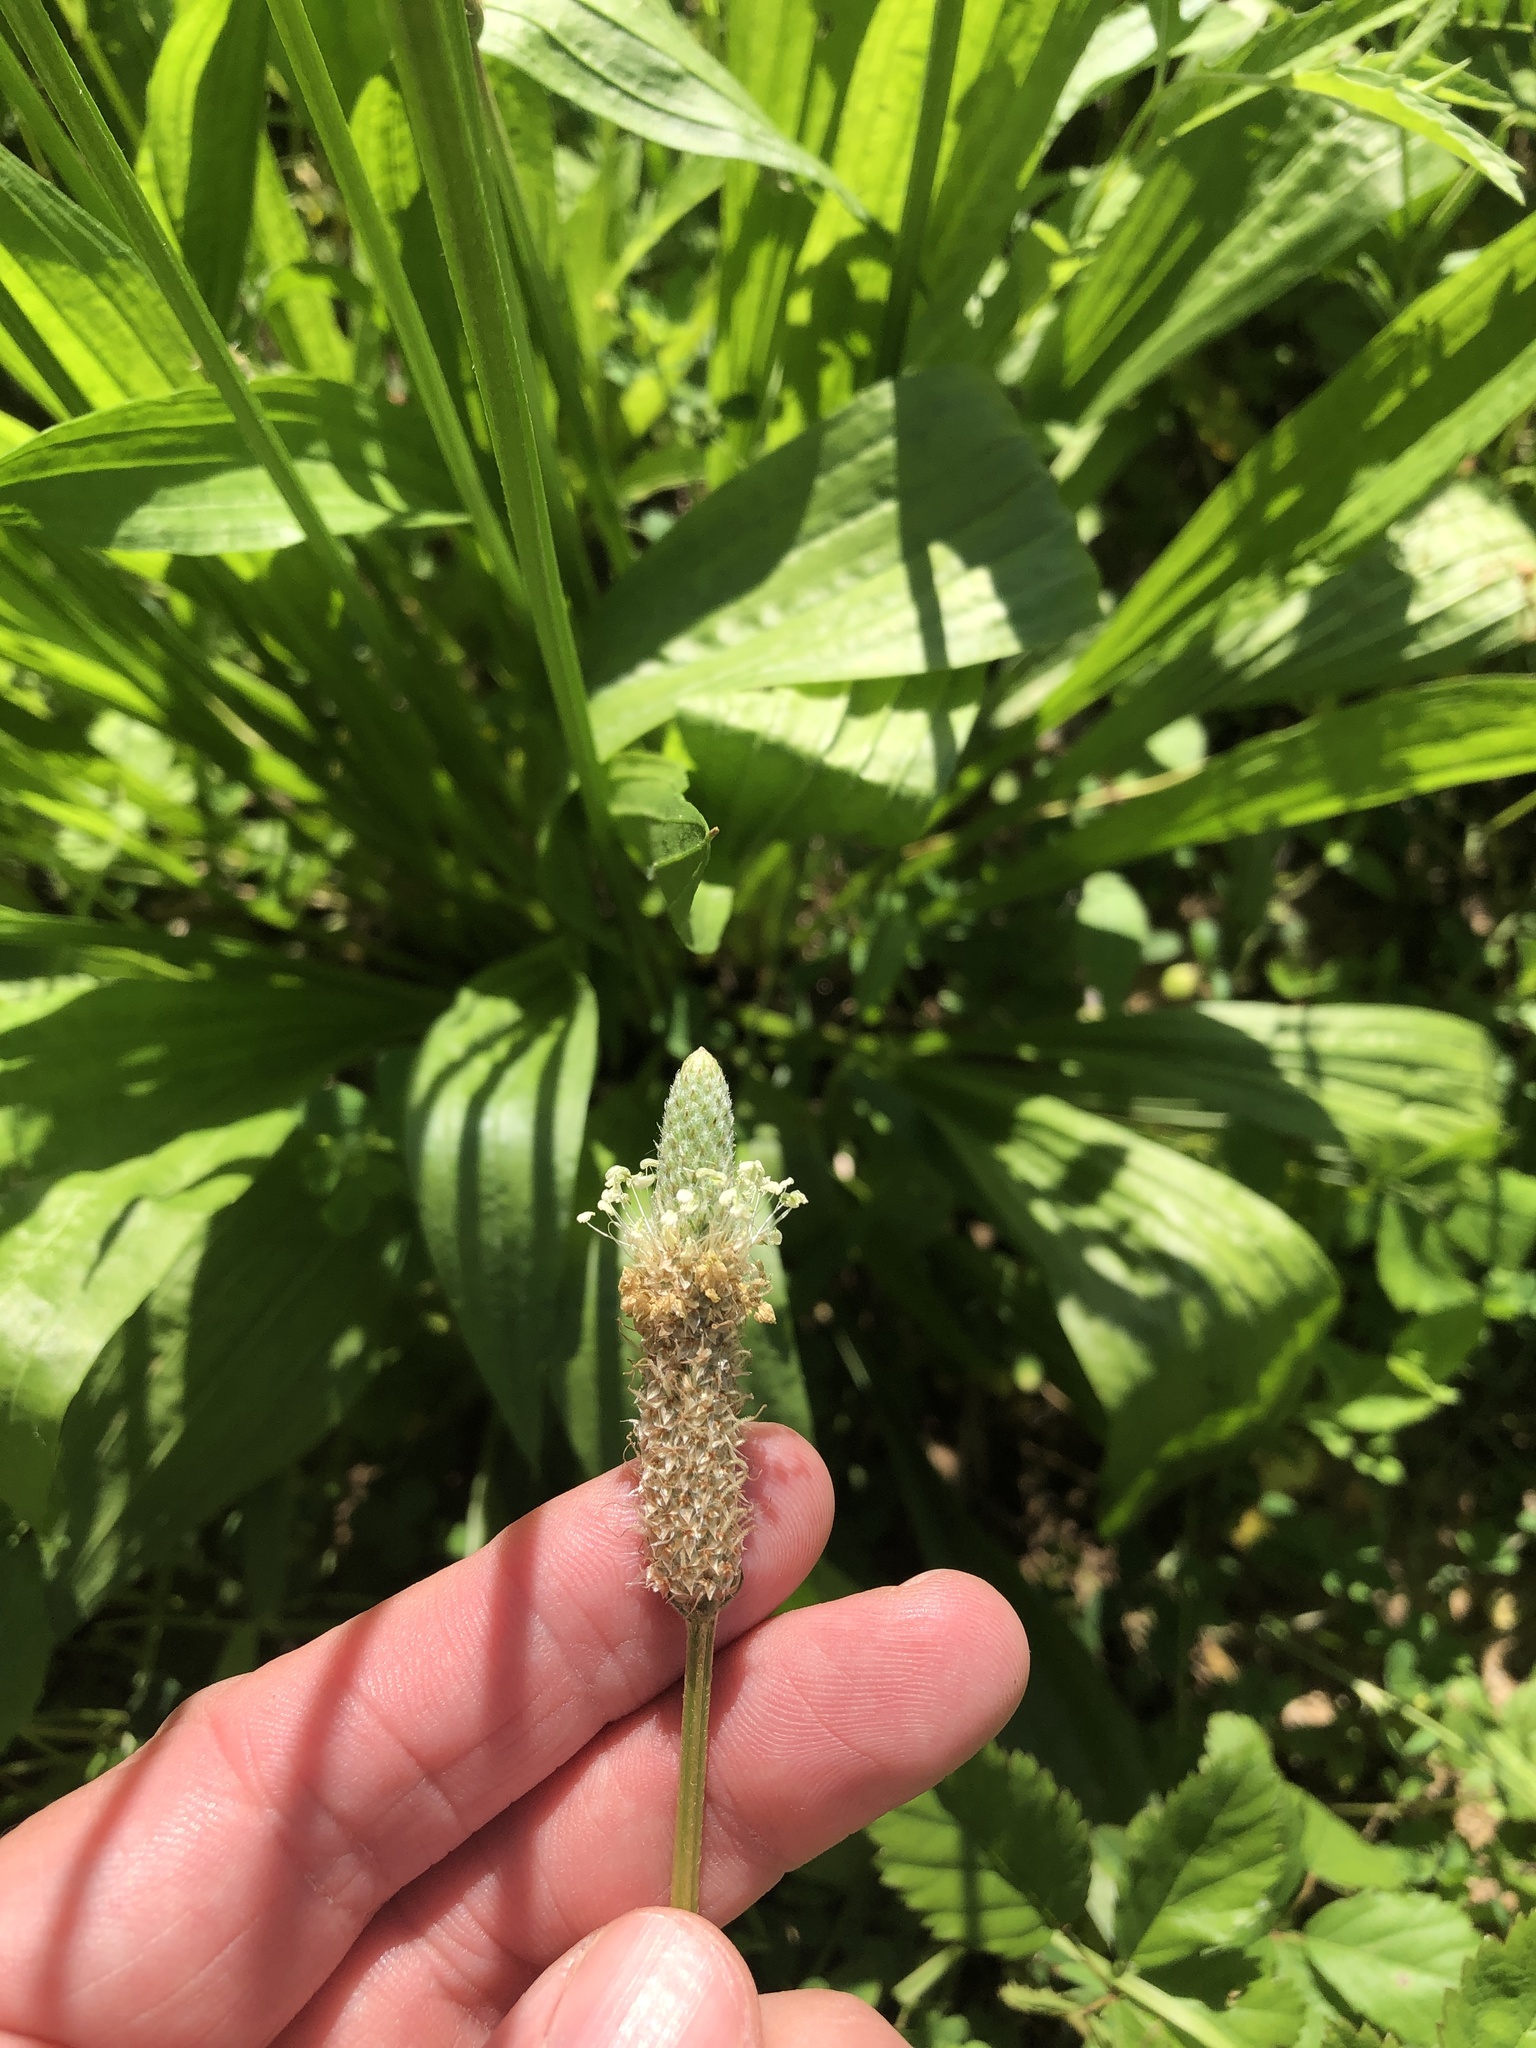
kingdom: Plantae
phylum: Tracheophyta
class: Magnoliopsida
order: Lamiales
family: Plantaginaceae
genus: Plantago
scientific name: Plantago lanceolata
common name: Ribwort plantain
